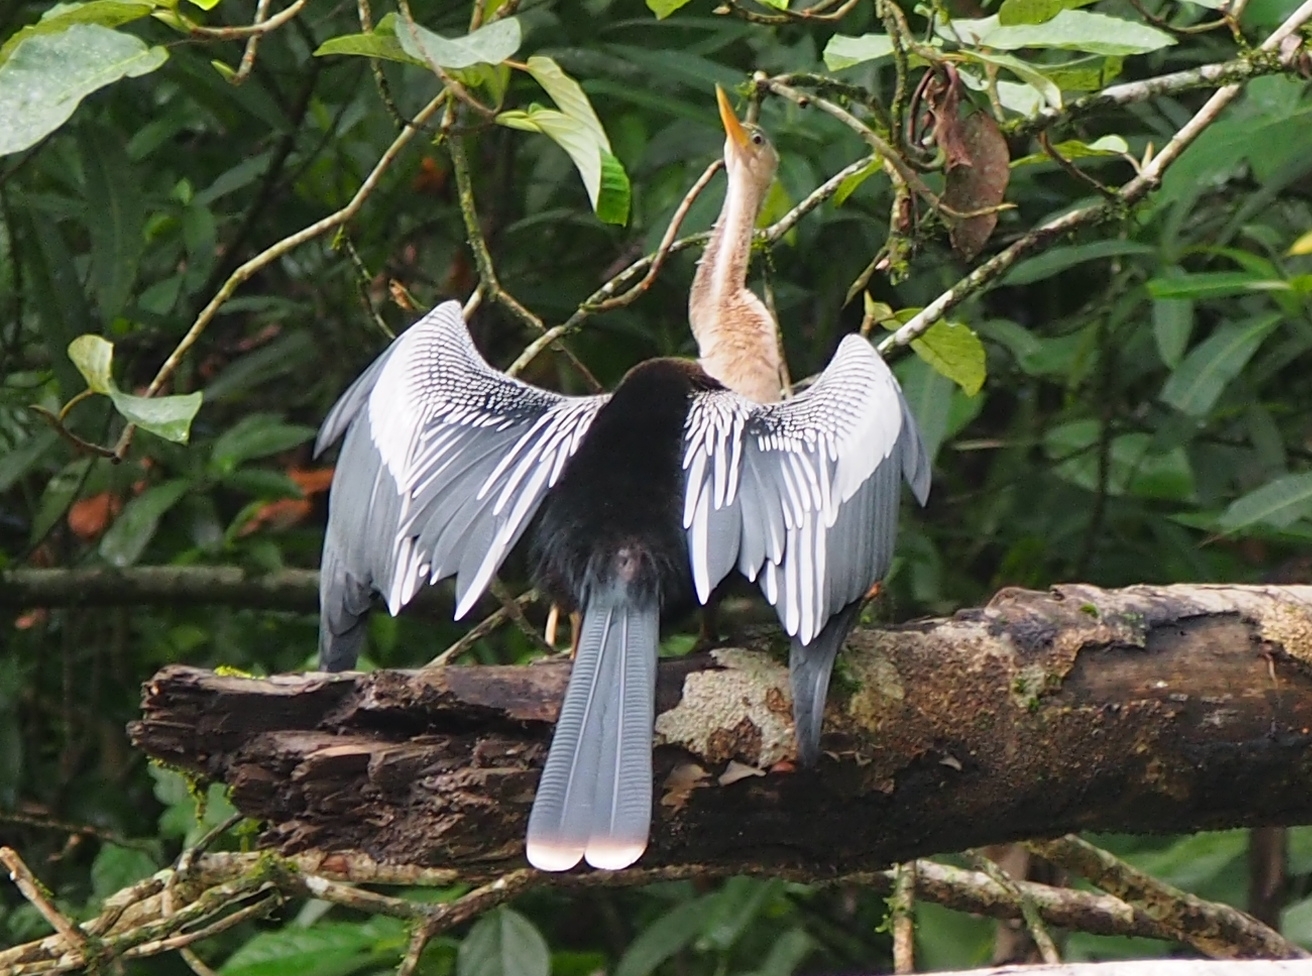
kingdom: Animalia
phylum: Chordata
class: Aves
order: Suliformes
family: Anhingidae
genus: Anhinga
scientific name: Anhinga anhinga
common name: Anhinga
